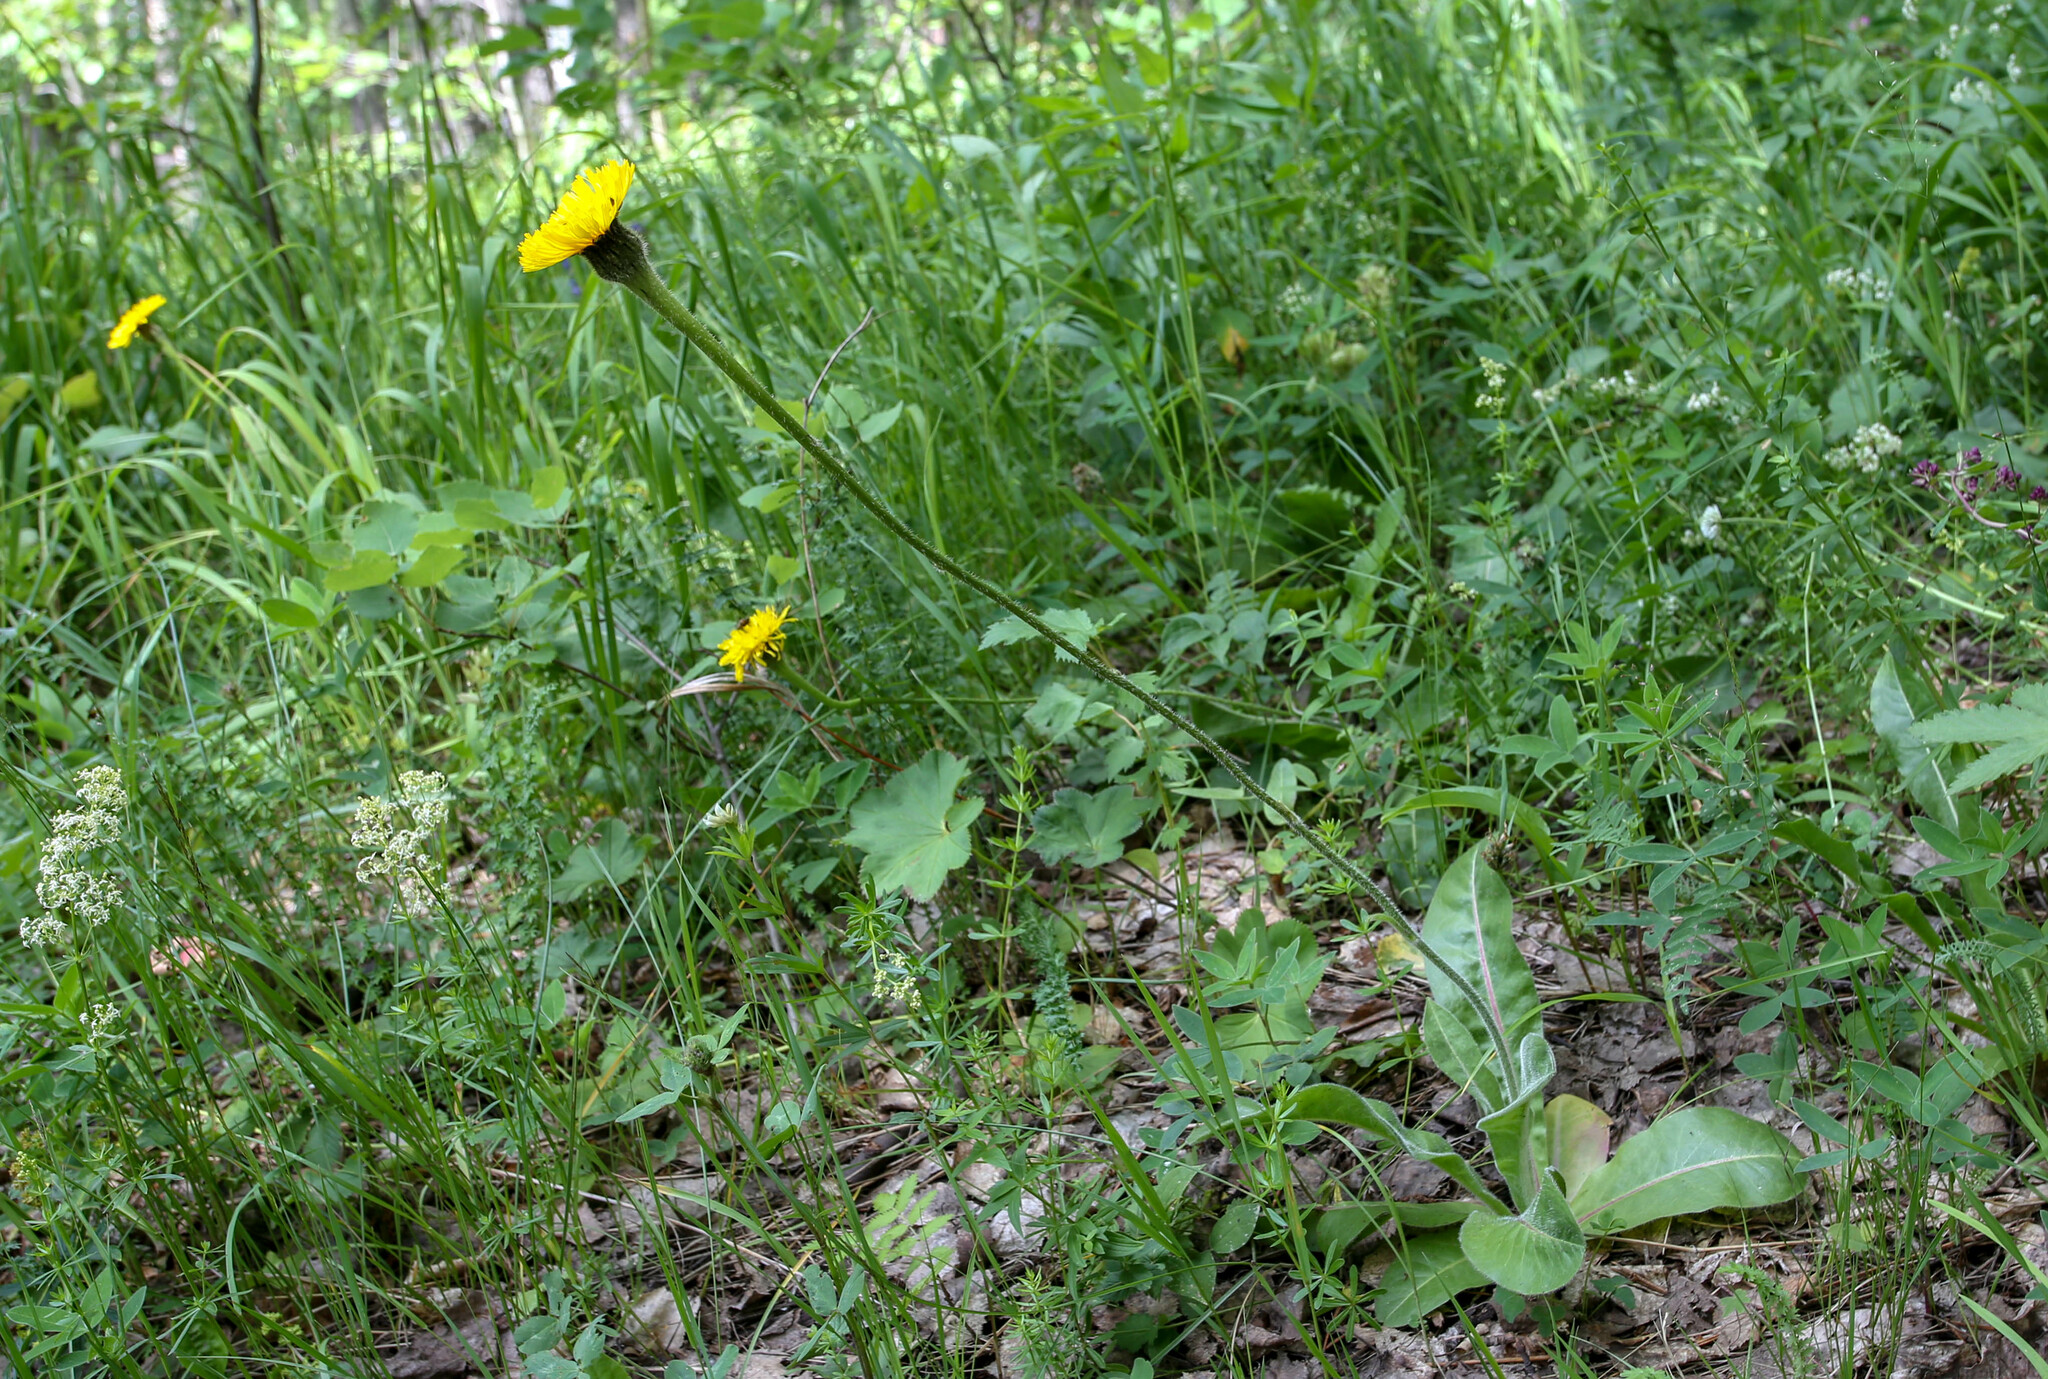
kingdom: Plantae
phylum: Tracheophyta
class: Magnoliopsida
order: Asterales
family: Asteraceae
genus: Trommsdorffia
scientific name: Trommsdorffia maculata
